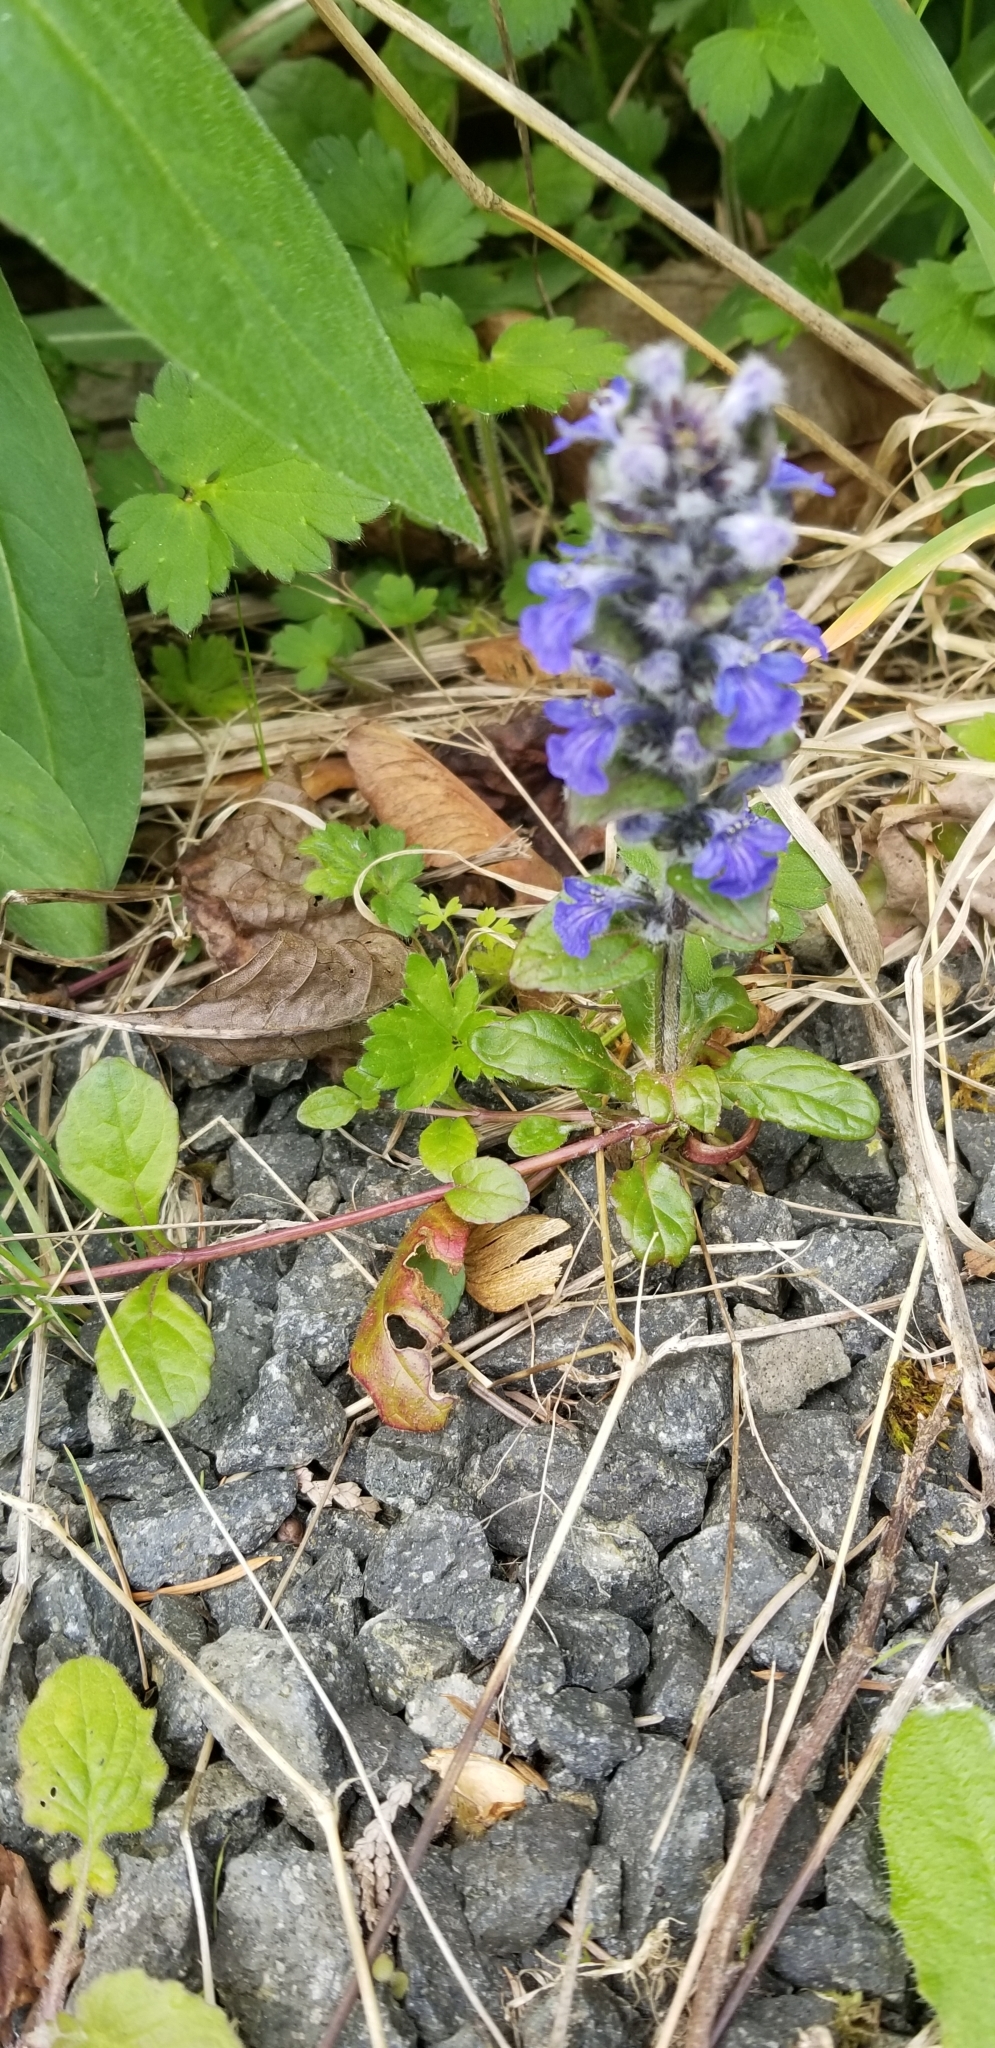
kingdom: Plantae
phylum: Tracheophyta
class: Magnoliopsida
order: Lamiales
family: Lamiaceae
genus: Ajuga
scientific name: Ajuga reptans
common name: Bugle
